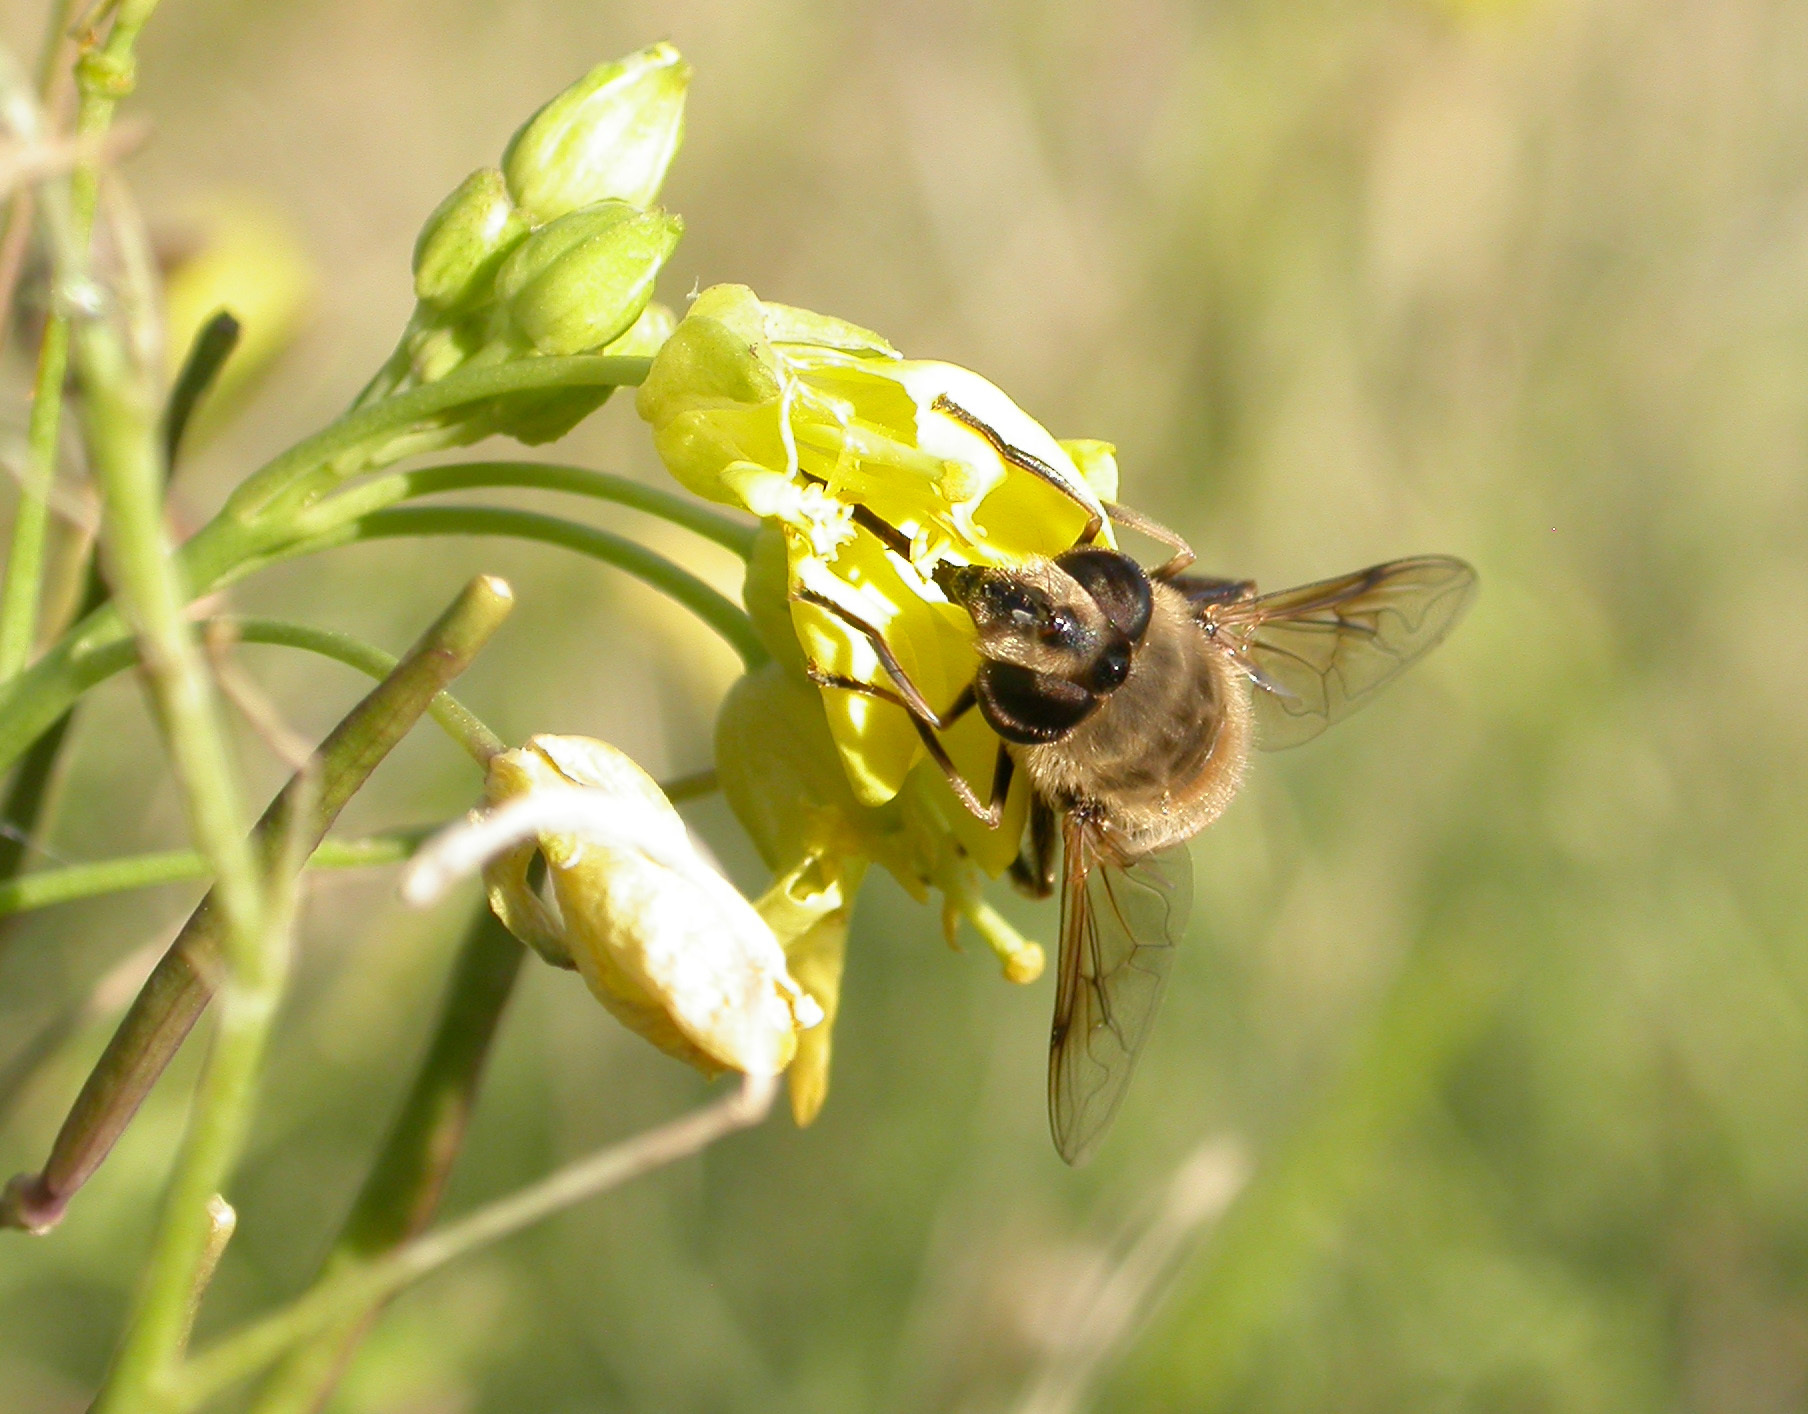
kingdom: Animalia
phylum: Arthropoda
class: Insecta
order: Diptera
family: Syrphidae
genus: Eristalis
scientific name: Eristalis tenax
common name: Drone fly
